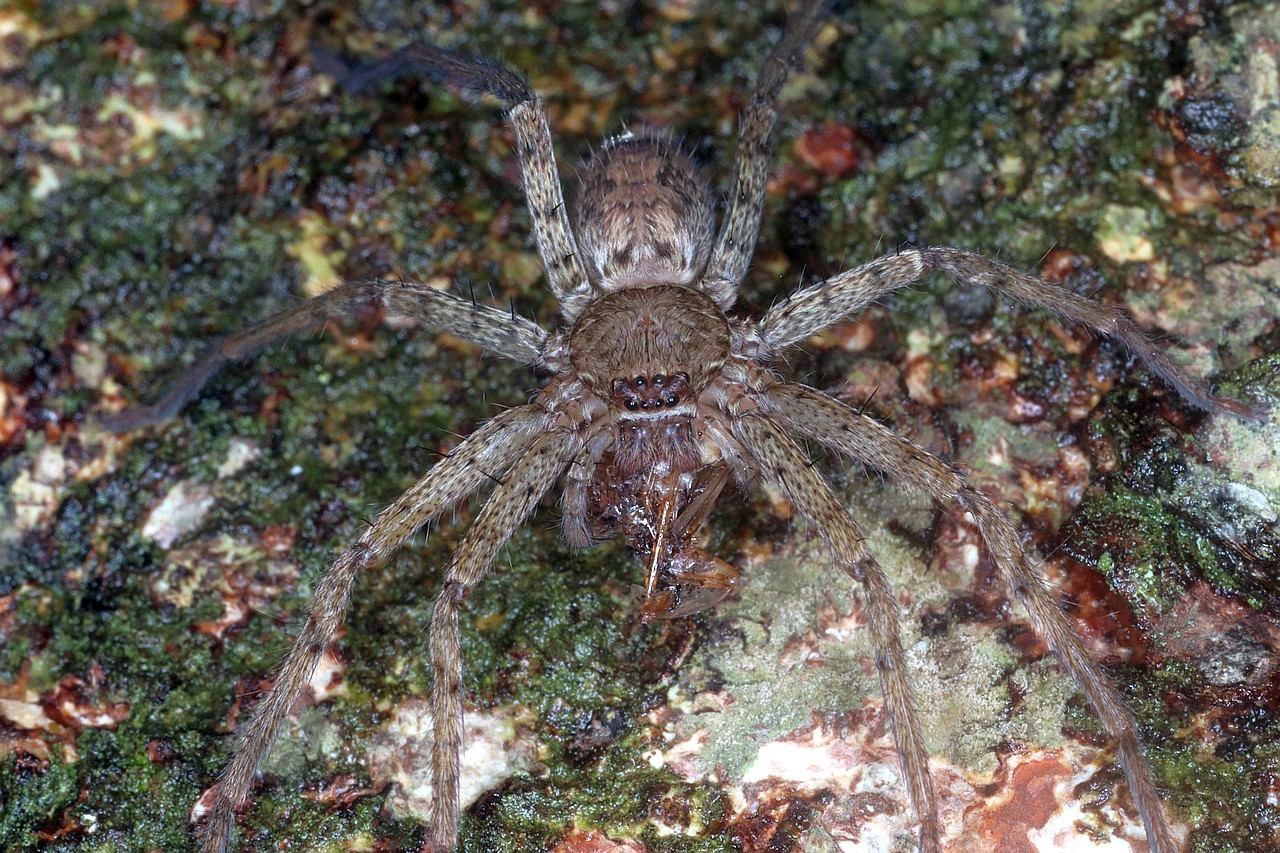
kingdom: Animalia
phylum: Arthropoda
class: Arachnida
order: Araneae
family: Sparassidae
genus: Heteropoda
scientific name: Heteropoda venatoria
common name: Huntsman spider
